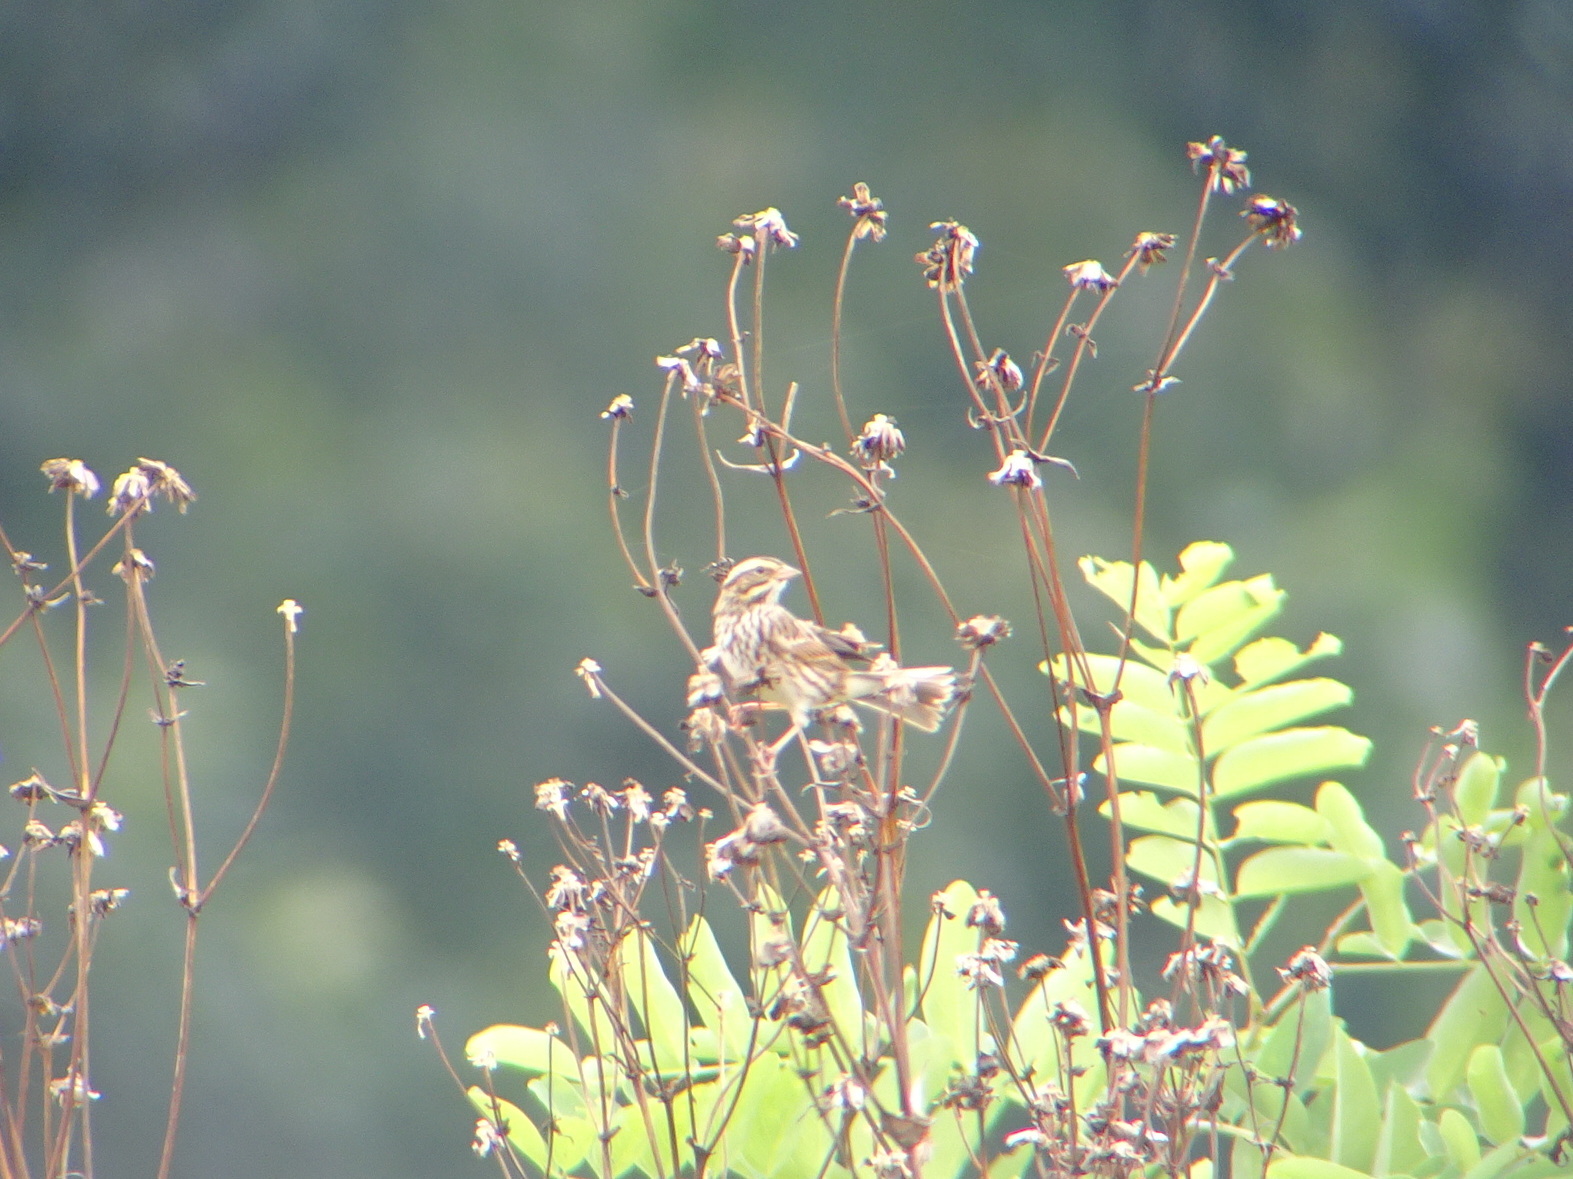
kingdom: Animalia
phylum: Chordata
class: Aves
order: Passeriformes
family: Passerellidae
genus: Passerculus
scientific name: Passerculus sandwichensis
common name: Savannah sparrow
